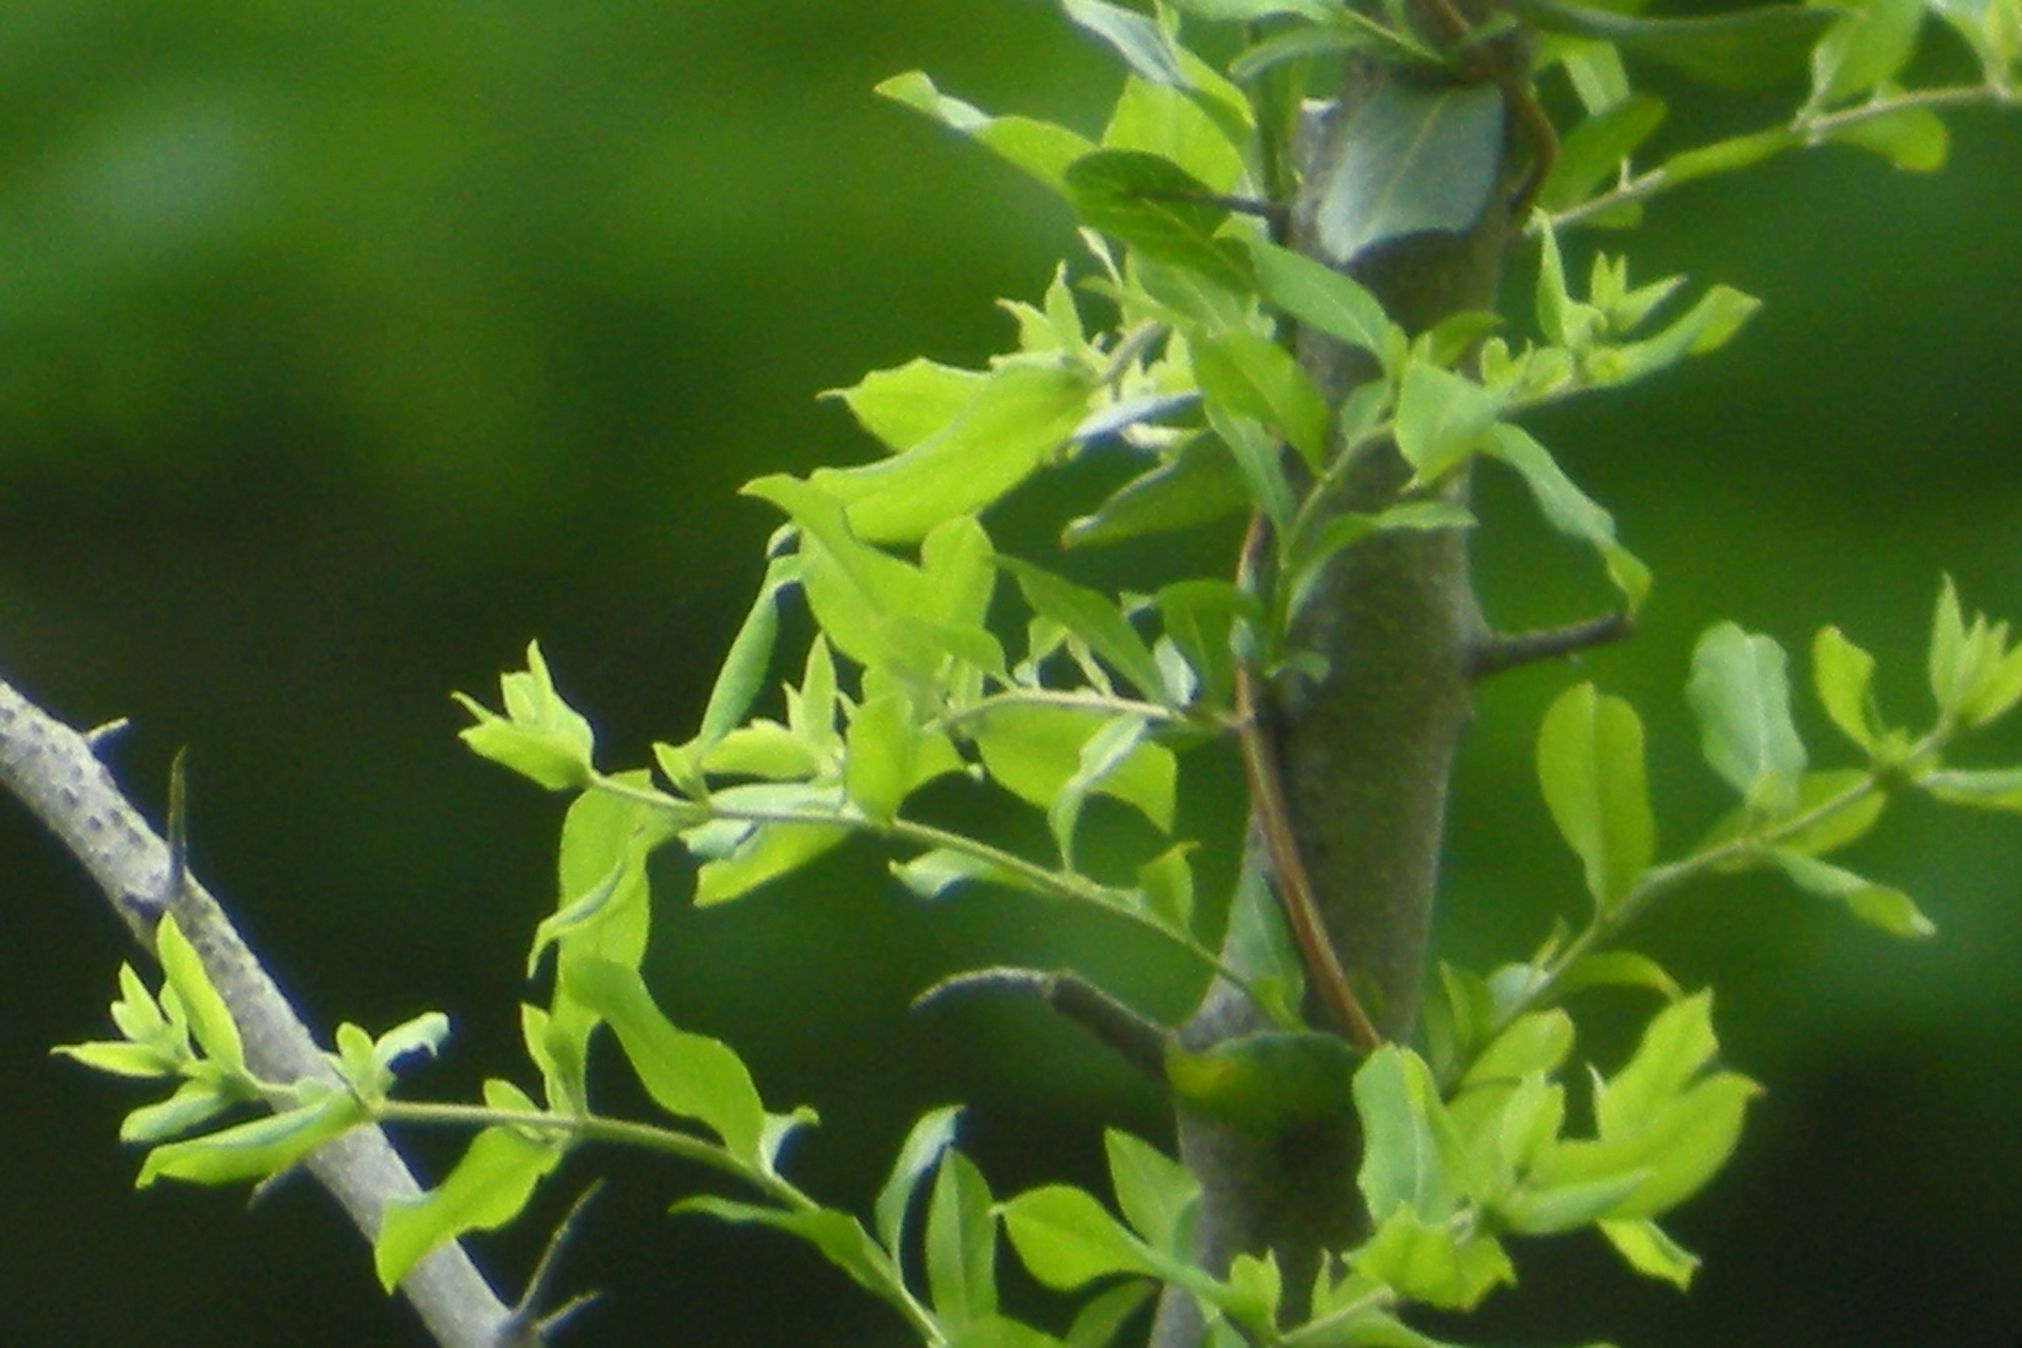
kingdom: Plantae
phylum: Tracheophyta
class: Magnoliopsida
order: Dipsacales
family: Caprifoliaceae
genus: Lonicera
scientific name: Lonicera japonica
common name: Japanese honeysuckle
